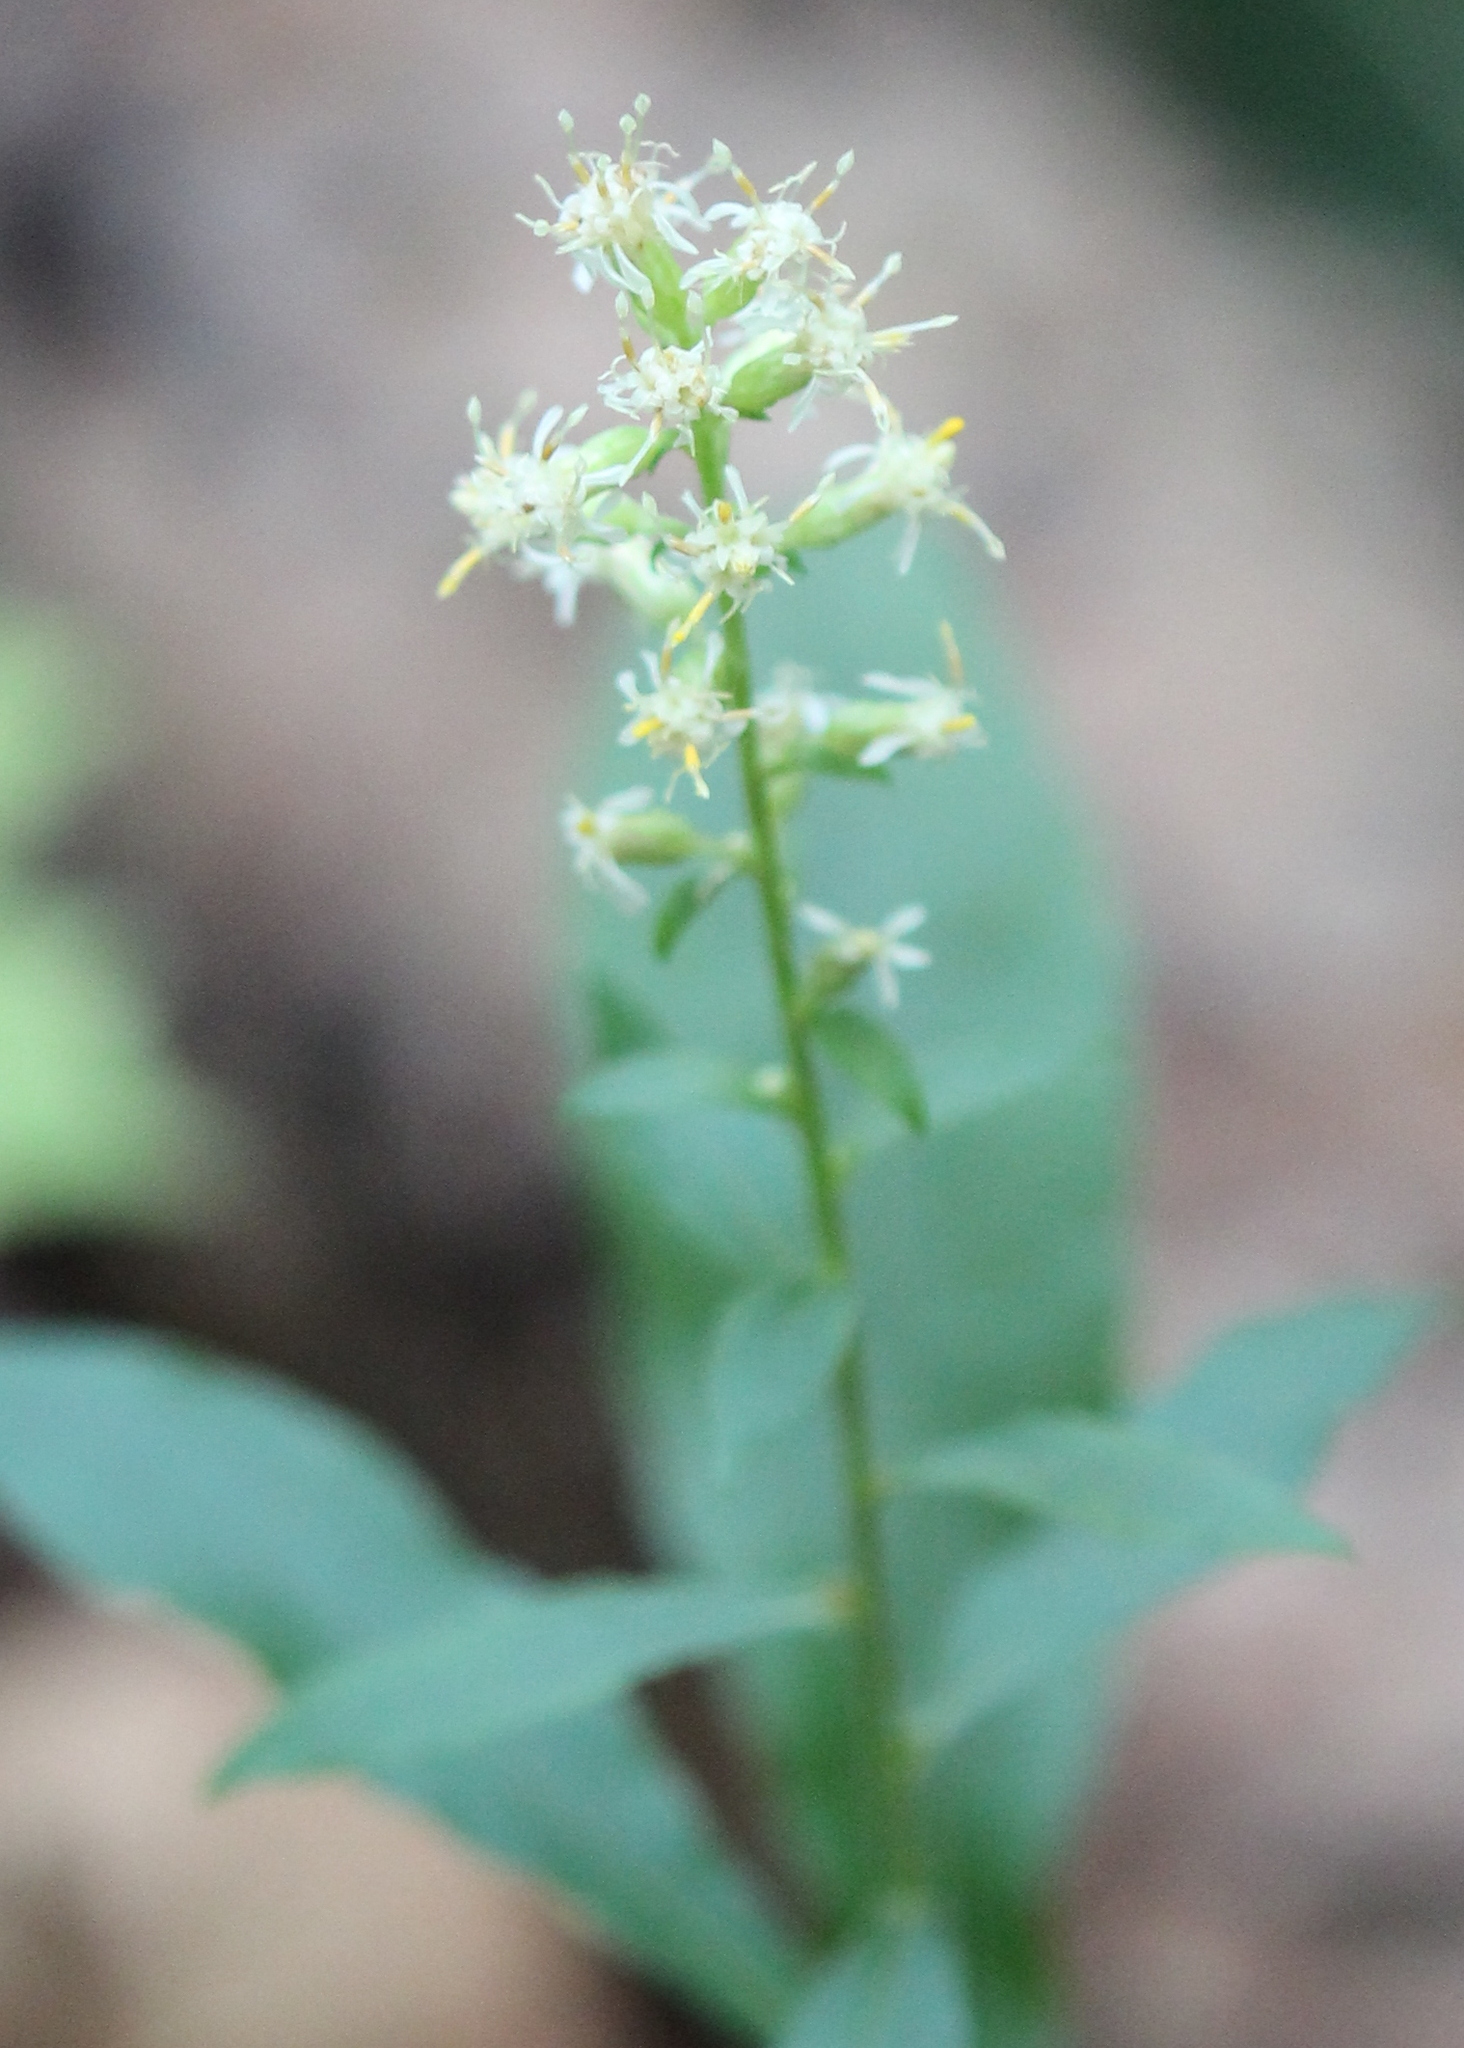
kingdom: Plantae
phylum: Tracheophyta
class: Magnoliopsida
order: Asterales
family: Asteraceae
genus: Solidago
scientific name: Solidago bicolor
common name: Silverrod
